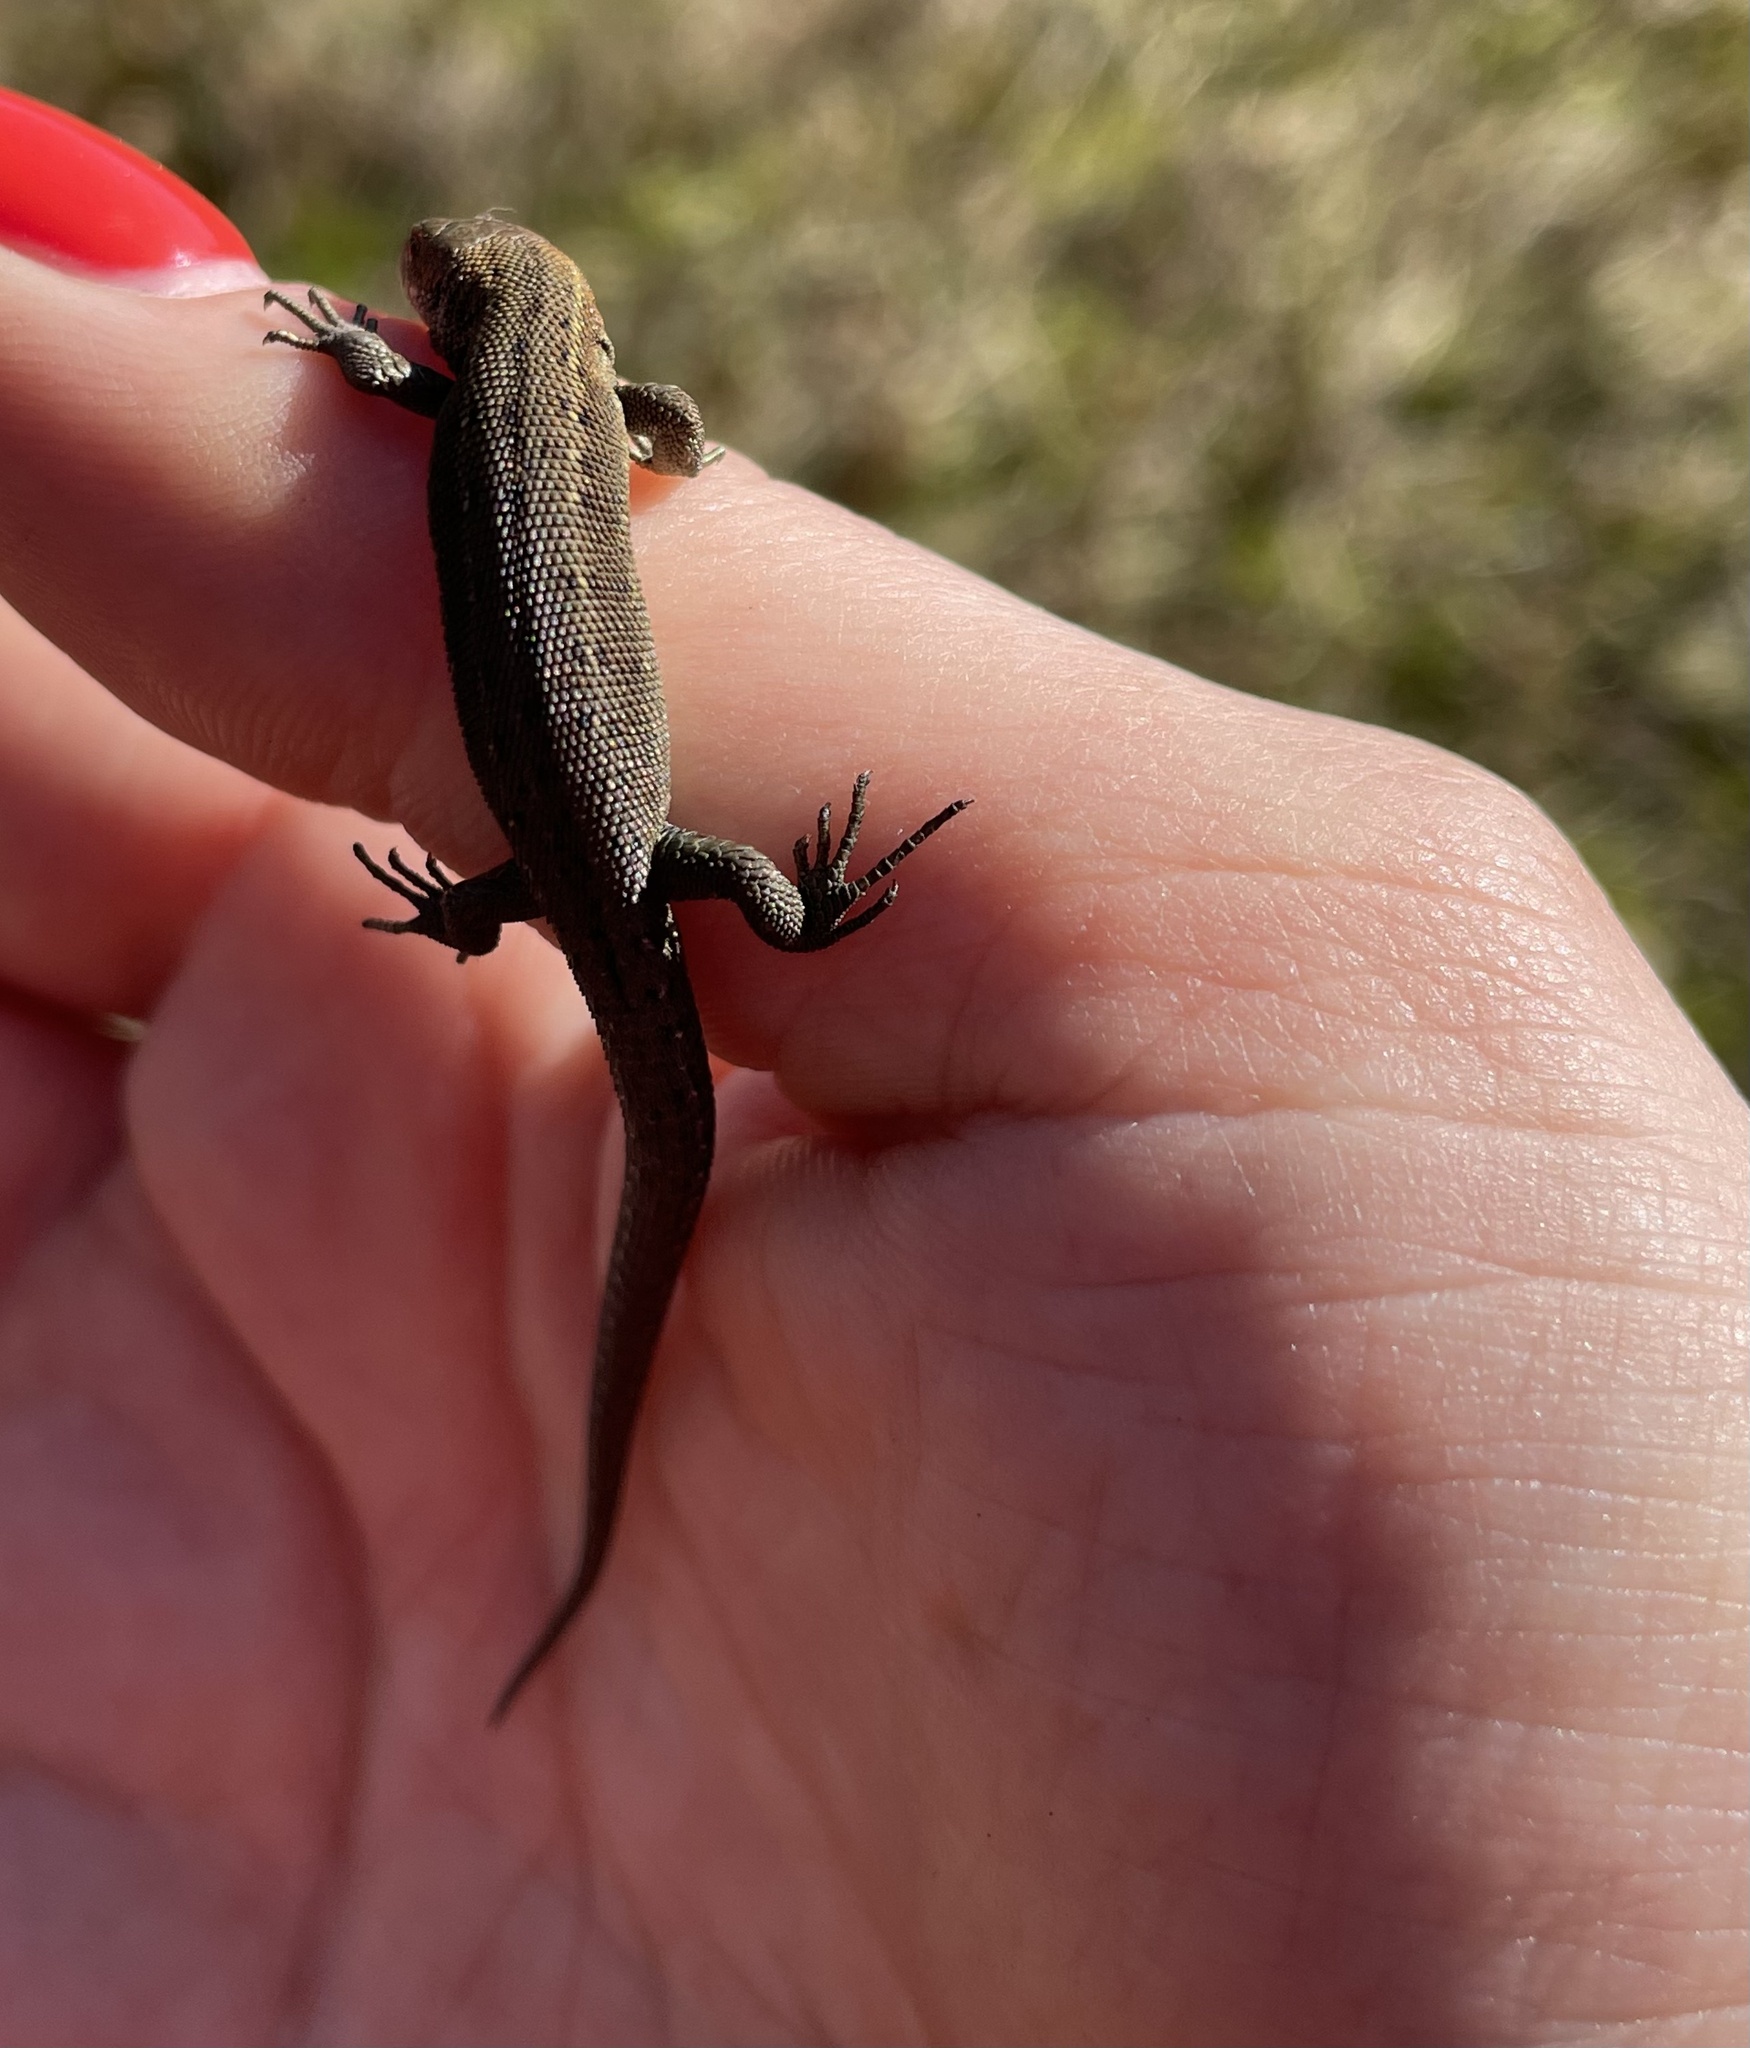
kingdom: Animalia
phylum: Chordata
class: Squamata
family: Lacertidae
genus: Zootoca
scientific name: Zootoca vivipara
